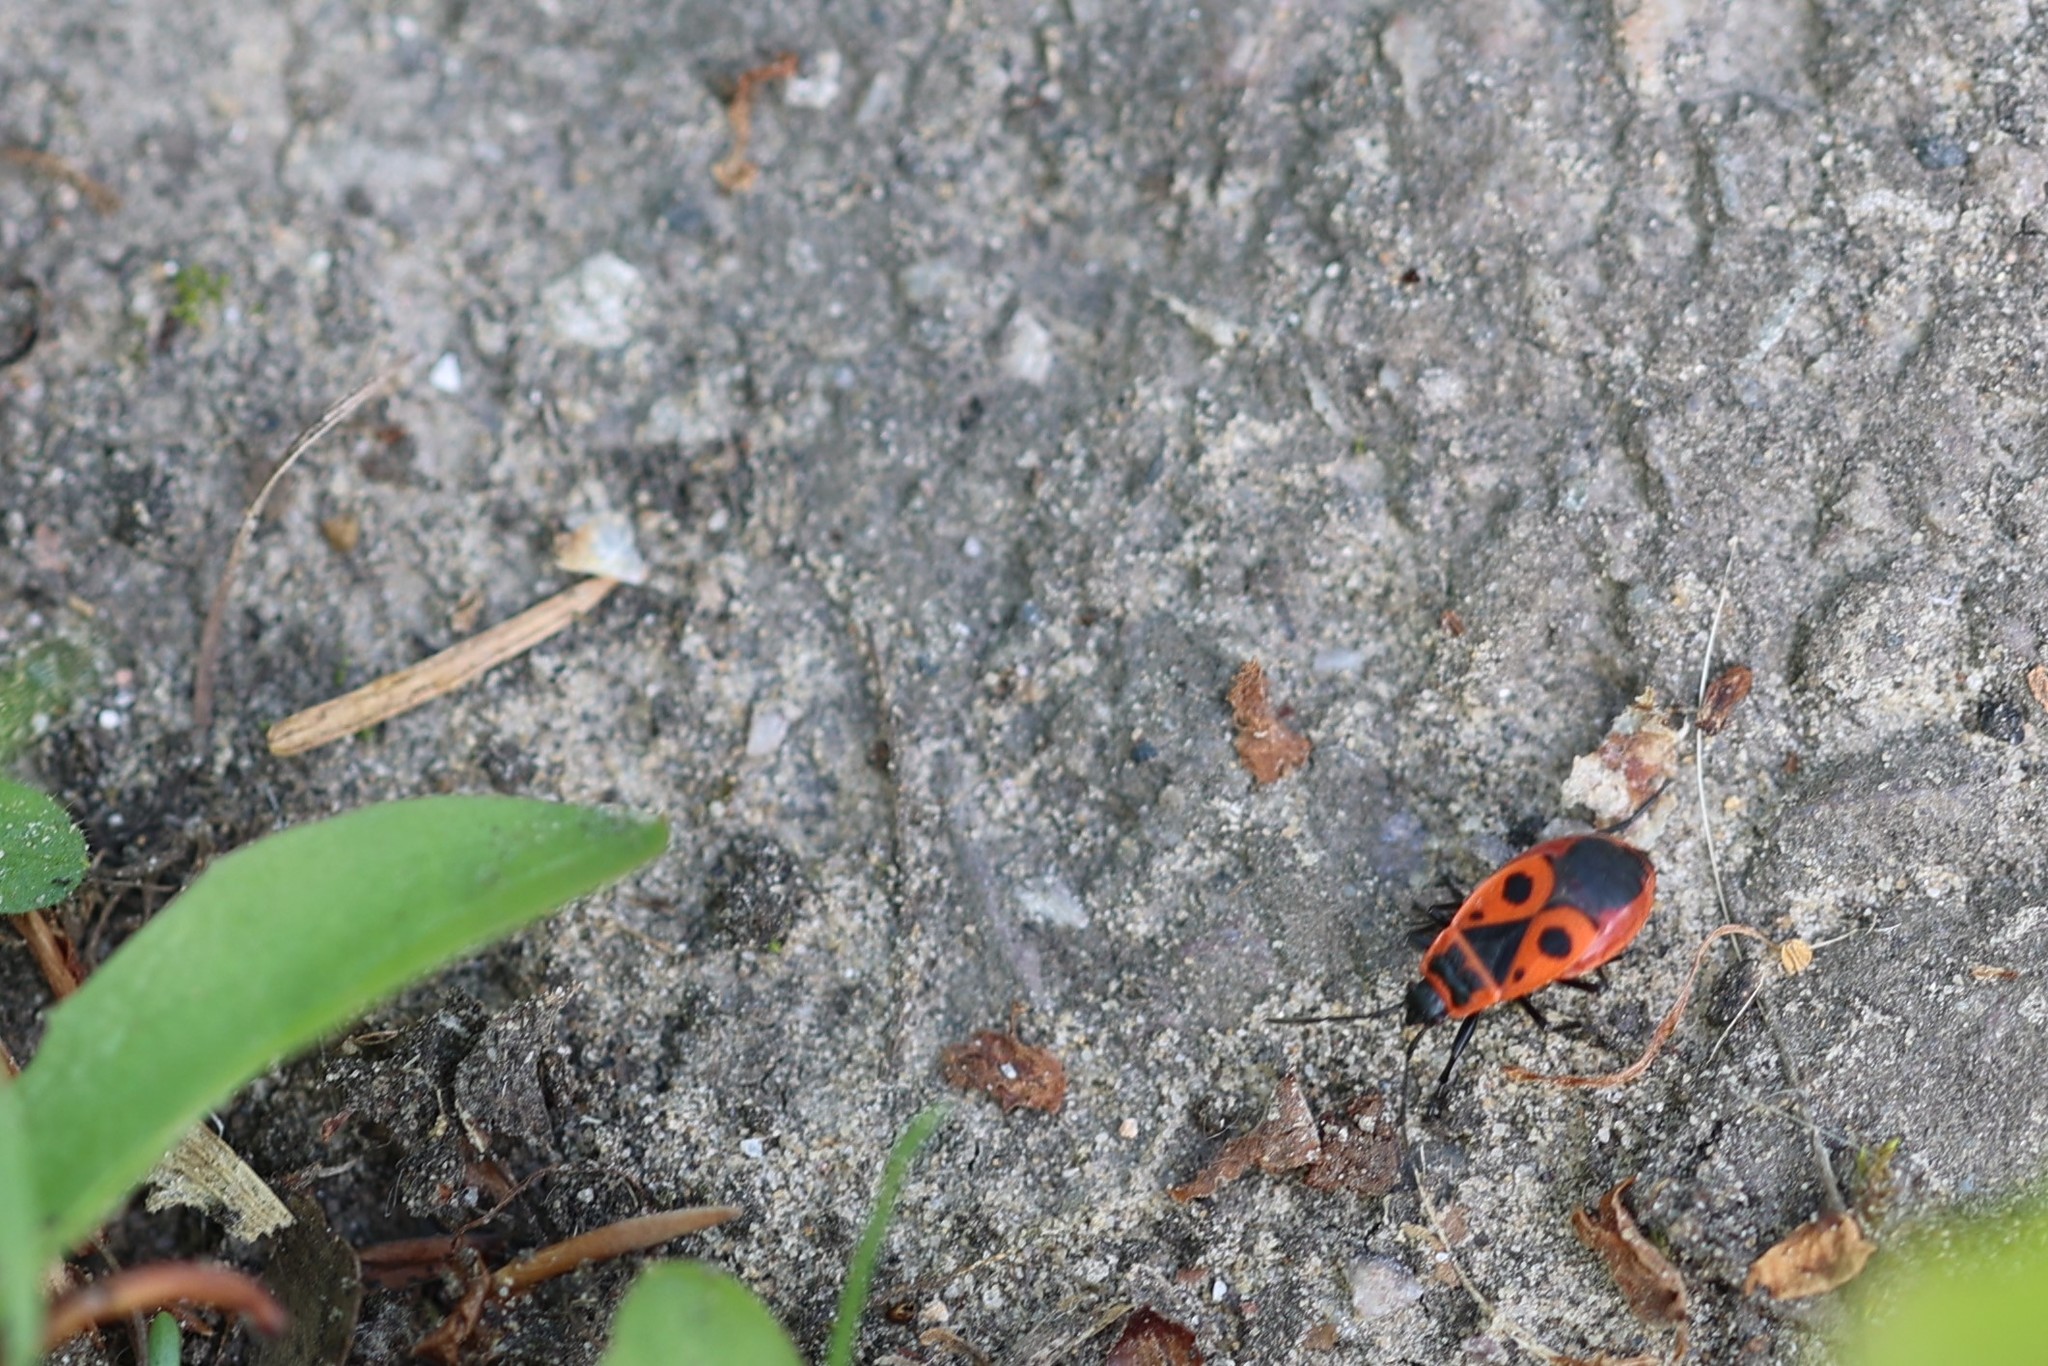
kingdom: Animalia
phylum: Arthropoda
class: Insecta
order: Hemiptera
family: Pyrrhocoridae
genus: Pyrrhocoris
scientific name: Pyrrhocoris apterus
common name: Firebug
